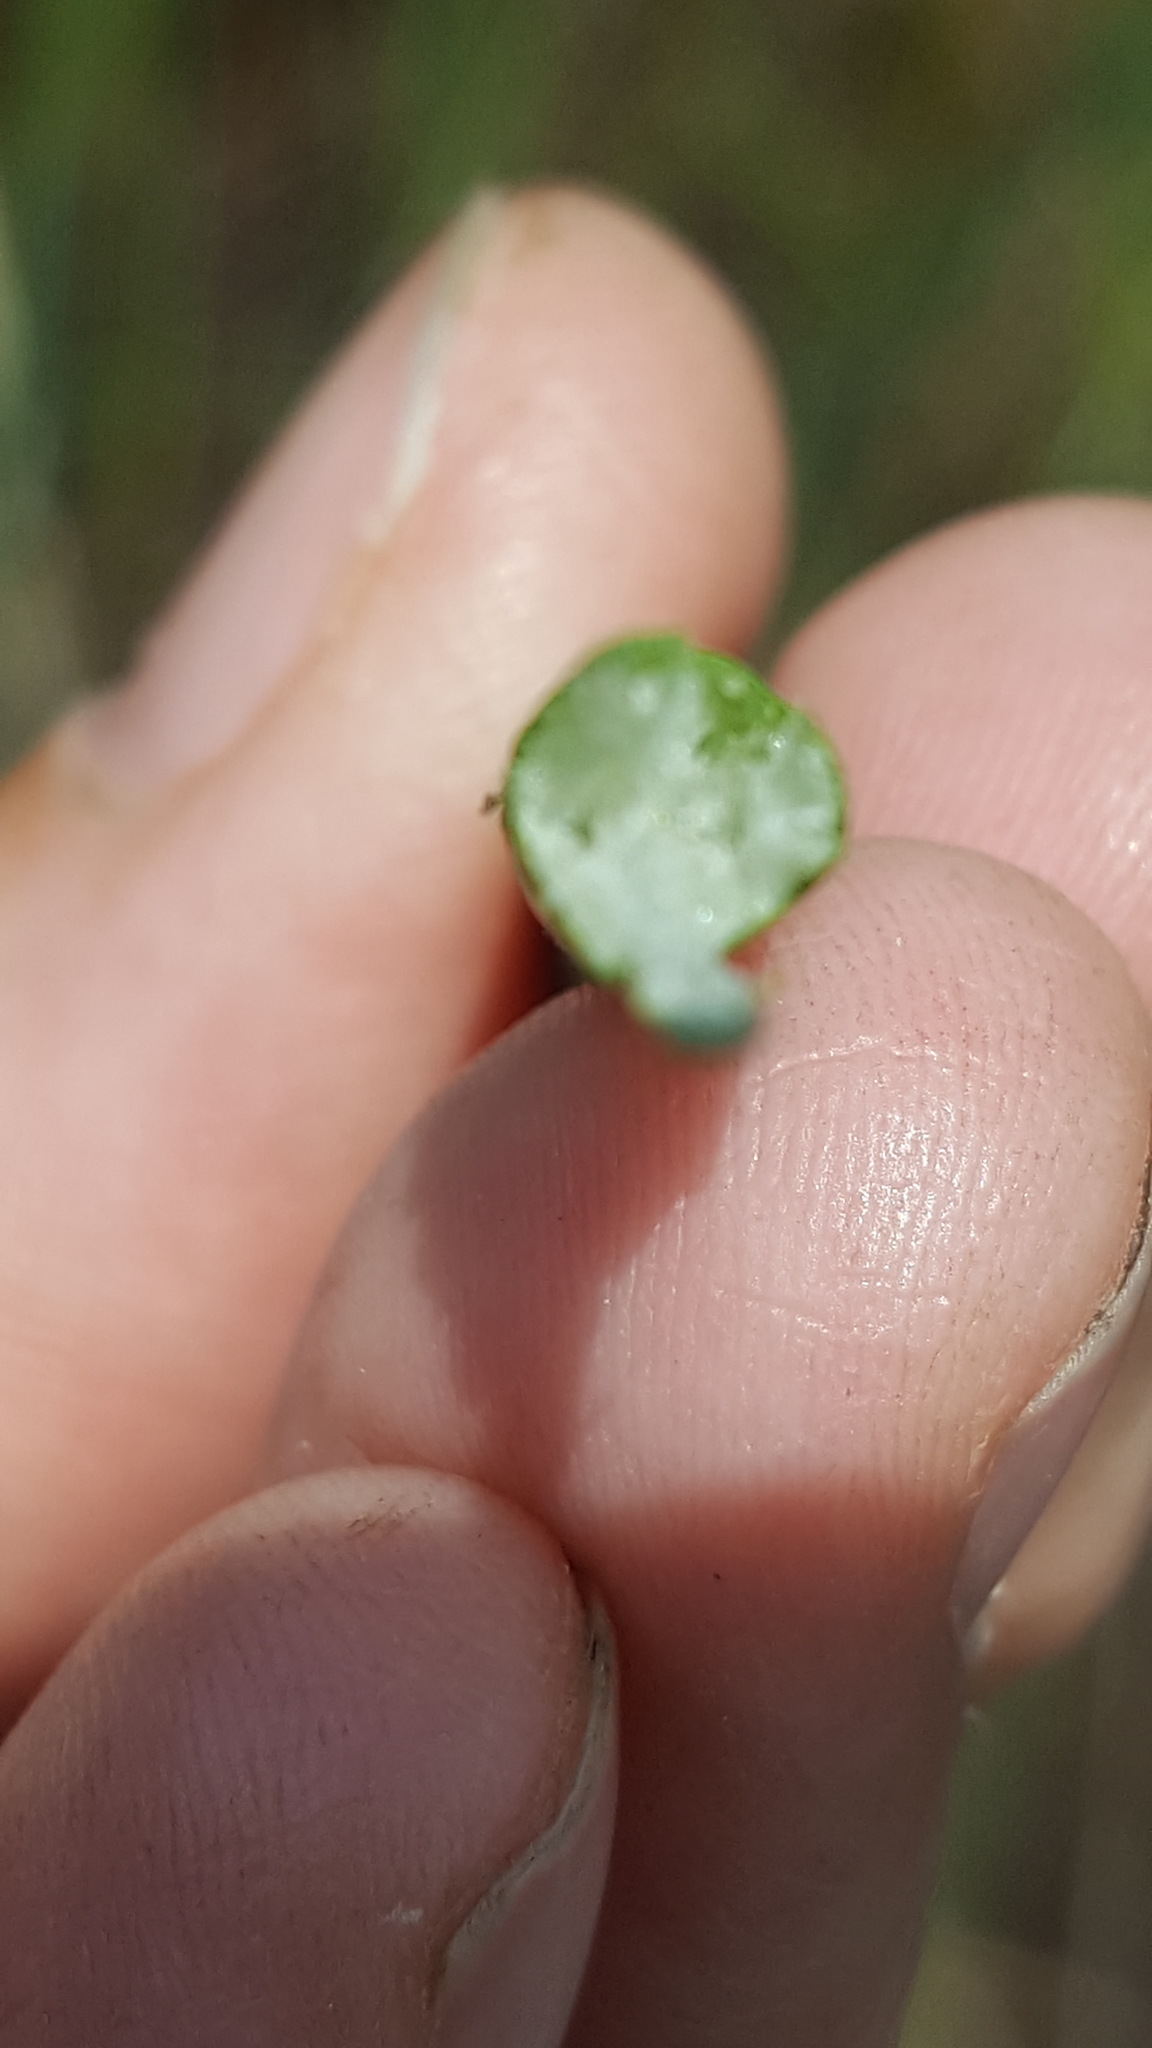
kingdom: Plantae
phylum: Tracheophyta
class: Liliopsida
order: Poales
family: Cyperaceae
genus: Schoenoplectus
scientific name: Schoenoplectus tabernaemontani
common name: Grey club-rush
